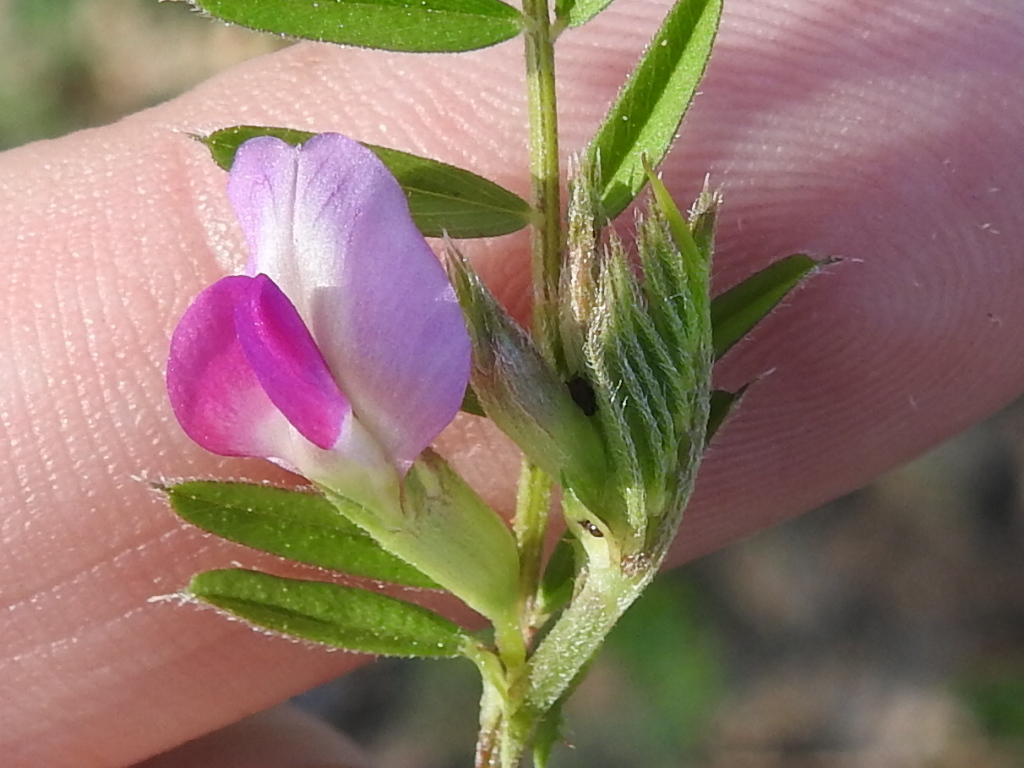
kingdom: Plantae
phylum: Tracheophyta
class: Magnoliopsida
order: Fabales
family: Fabaceae
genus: Vicia
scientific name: Vicia sativa
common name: Garden vetch
